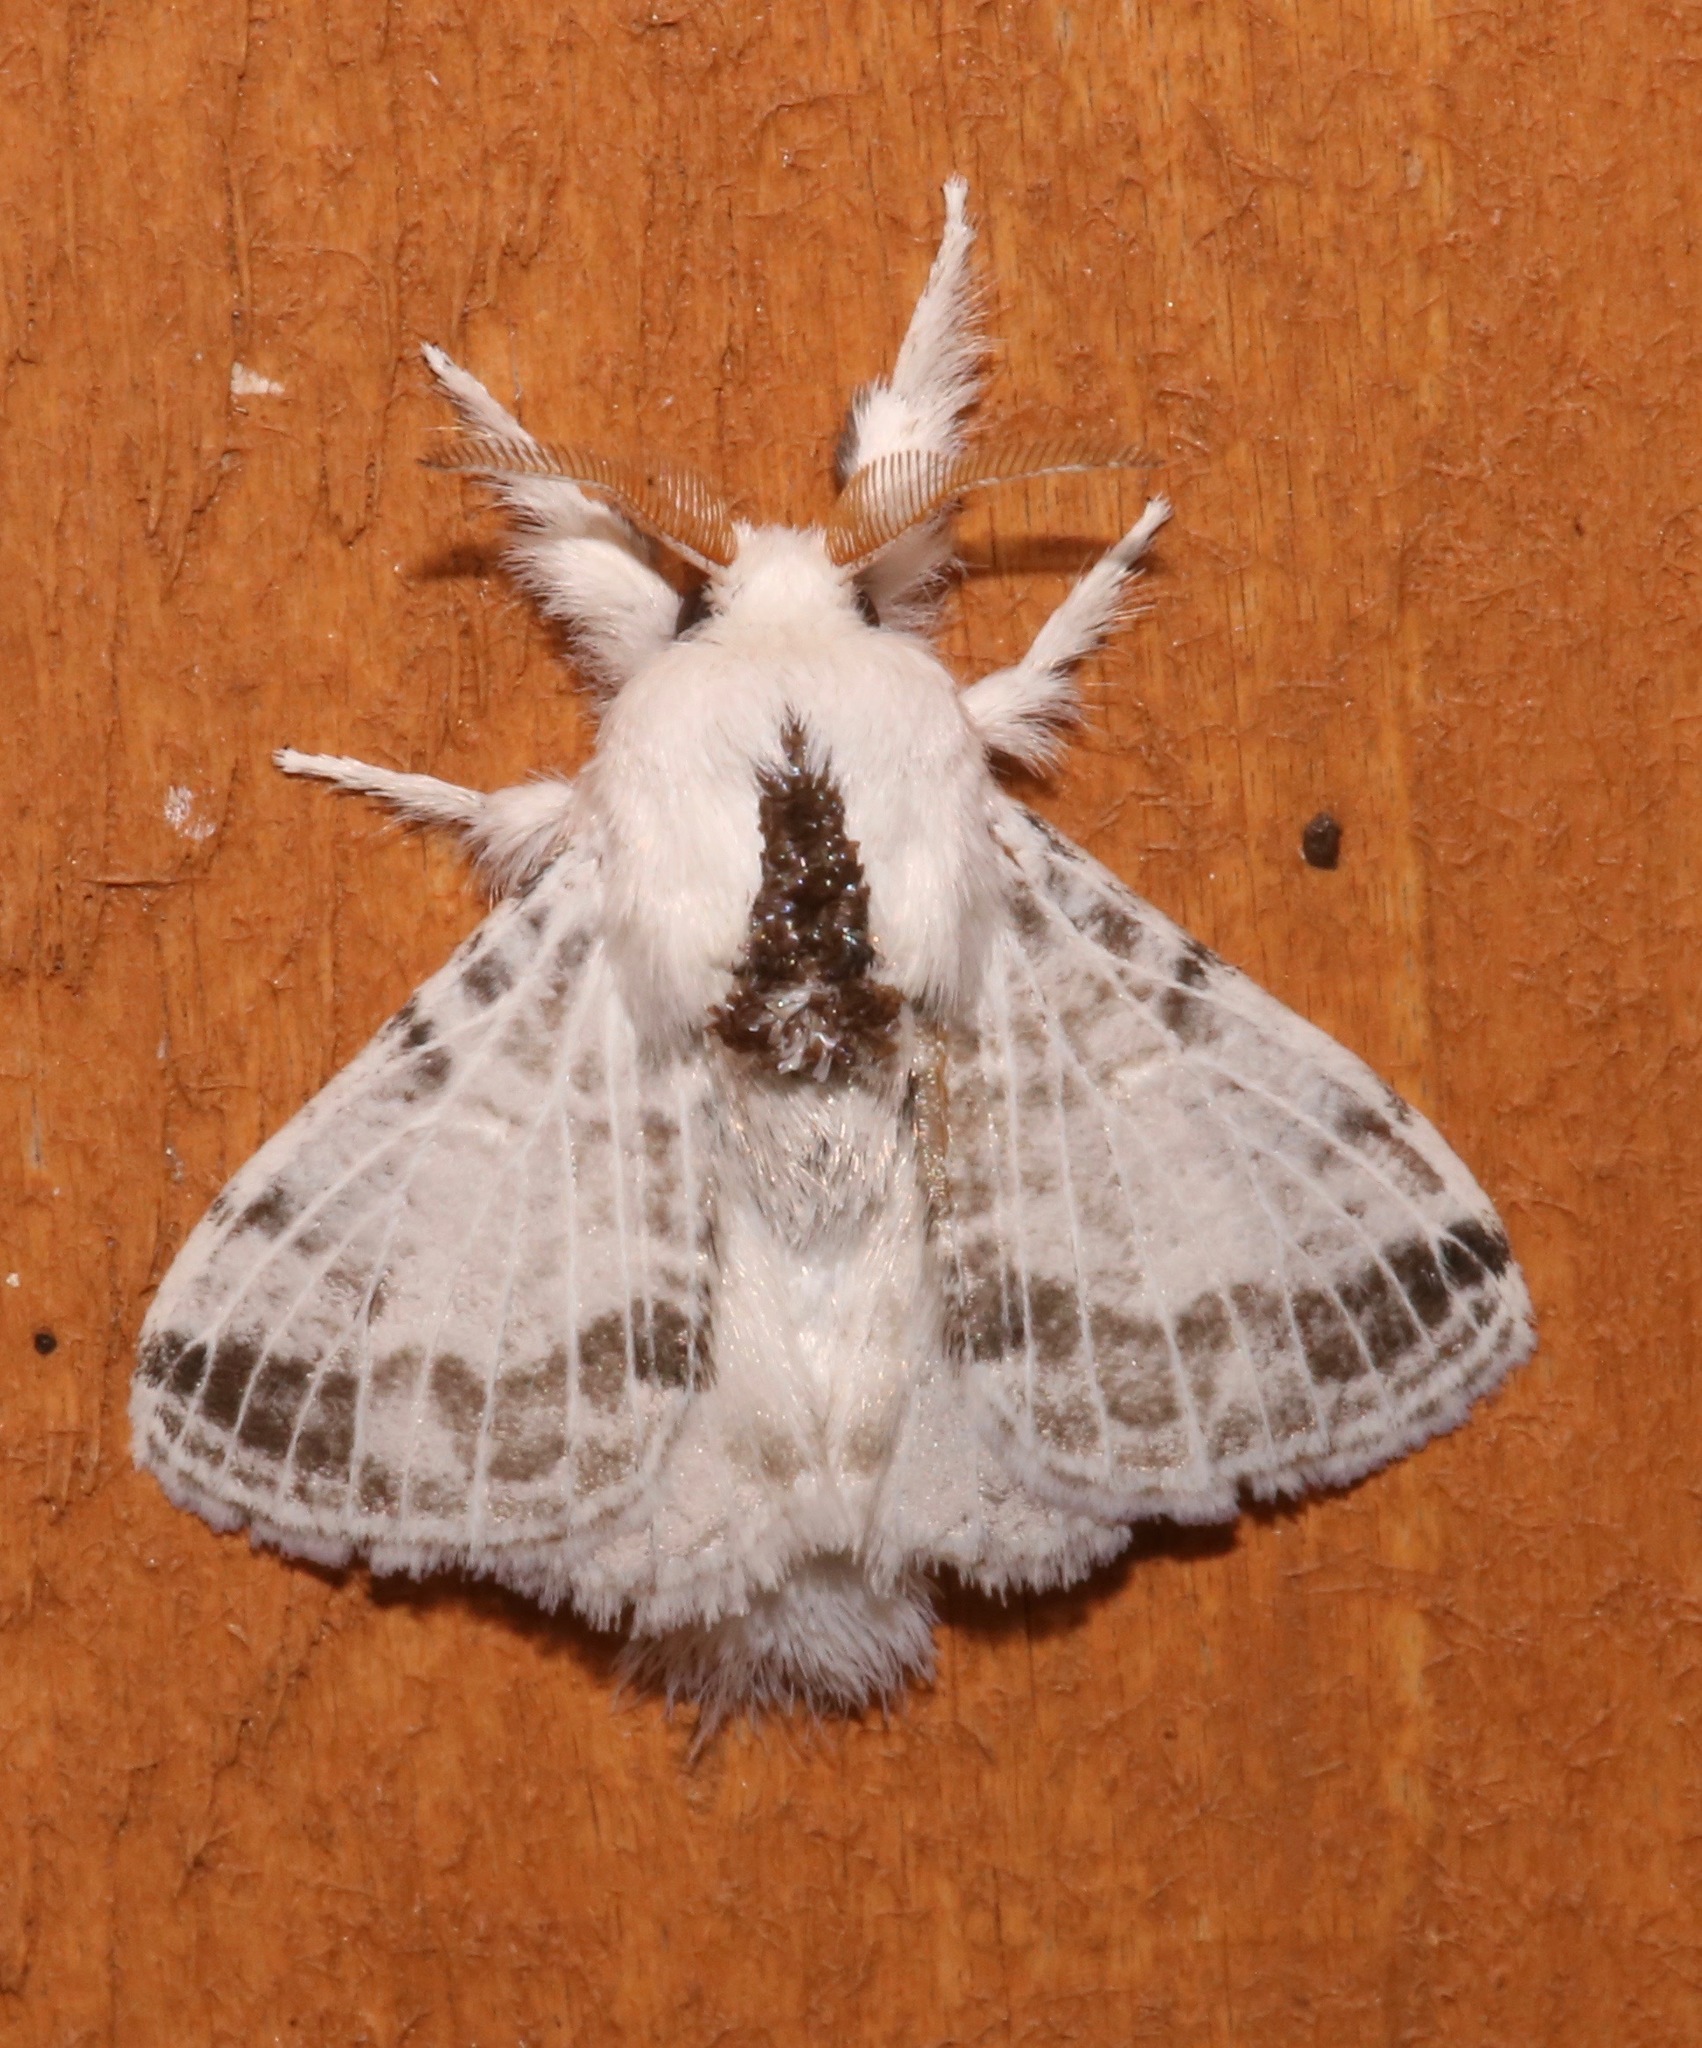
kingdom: Animalia
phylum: Arthropoda
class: Insecta
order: Lepidoptera
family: Lasiocampidae
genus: Tolype
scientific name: Tolype minta
